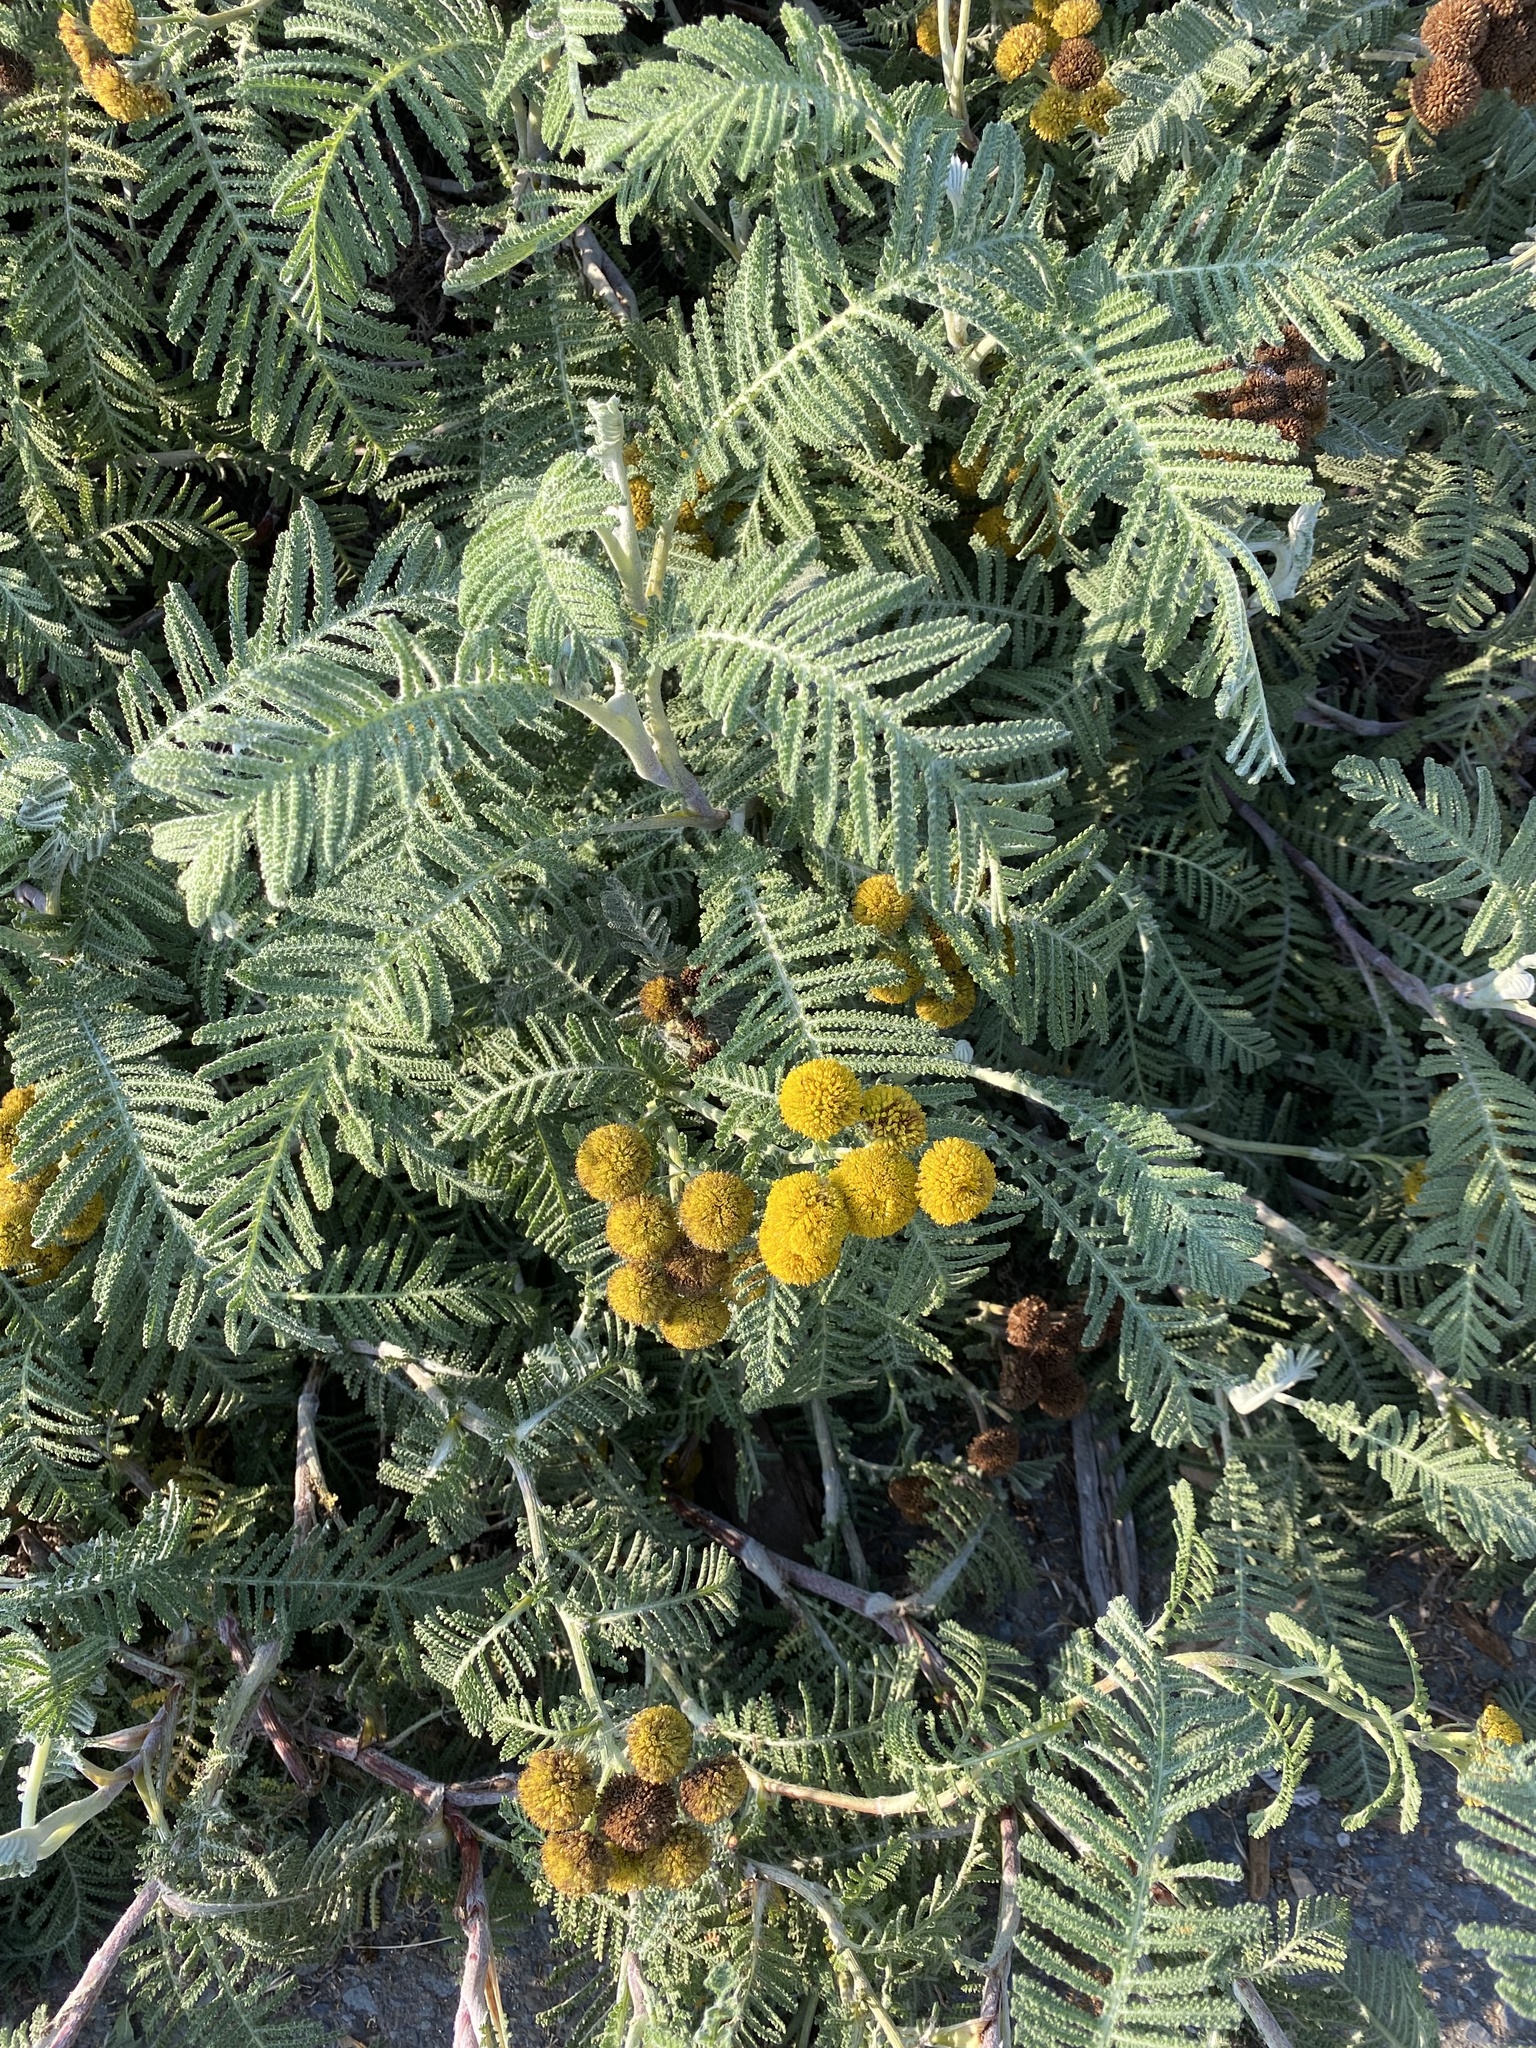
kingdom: Plantae
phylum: Tracheophyta
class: Magnoliopsida
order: Asterales
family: Asteraceae
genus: Tanacetum
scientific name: Tanacetum bipinnatum
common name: Dwarf tansy
